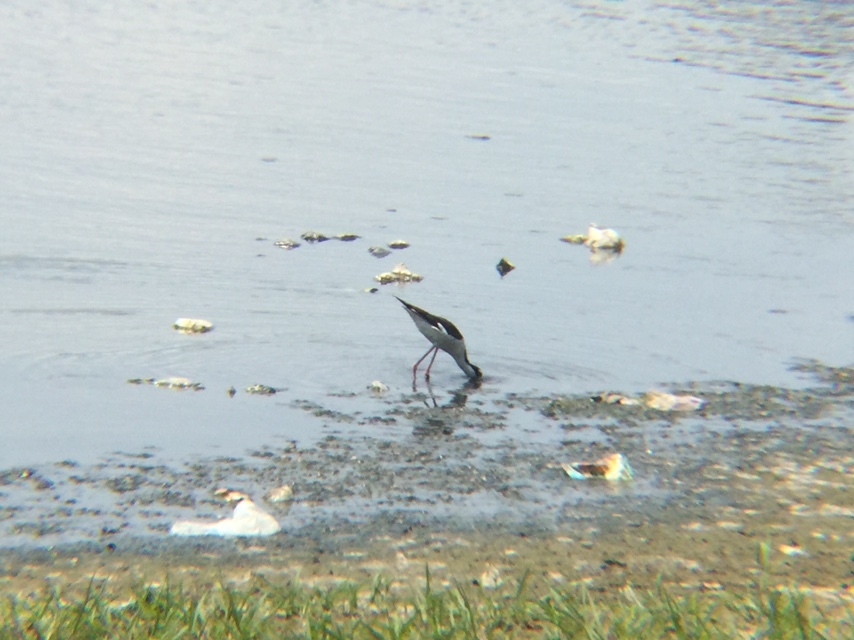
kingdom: Animalia
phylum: Chordata
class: Aves
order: Charadriiformes
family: Recurvirostridae
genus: Himantopus
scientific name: Himantopus mexicanus
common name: Black-necked stilt
